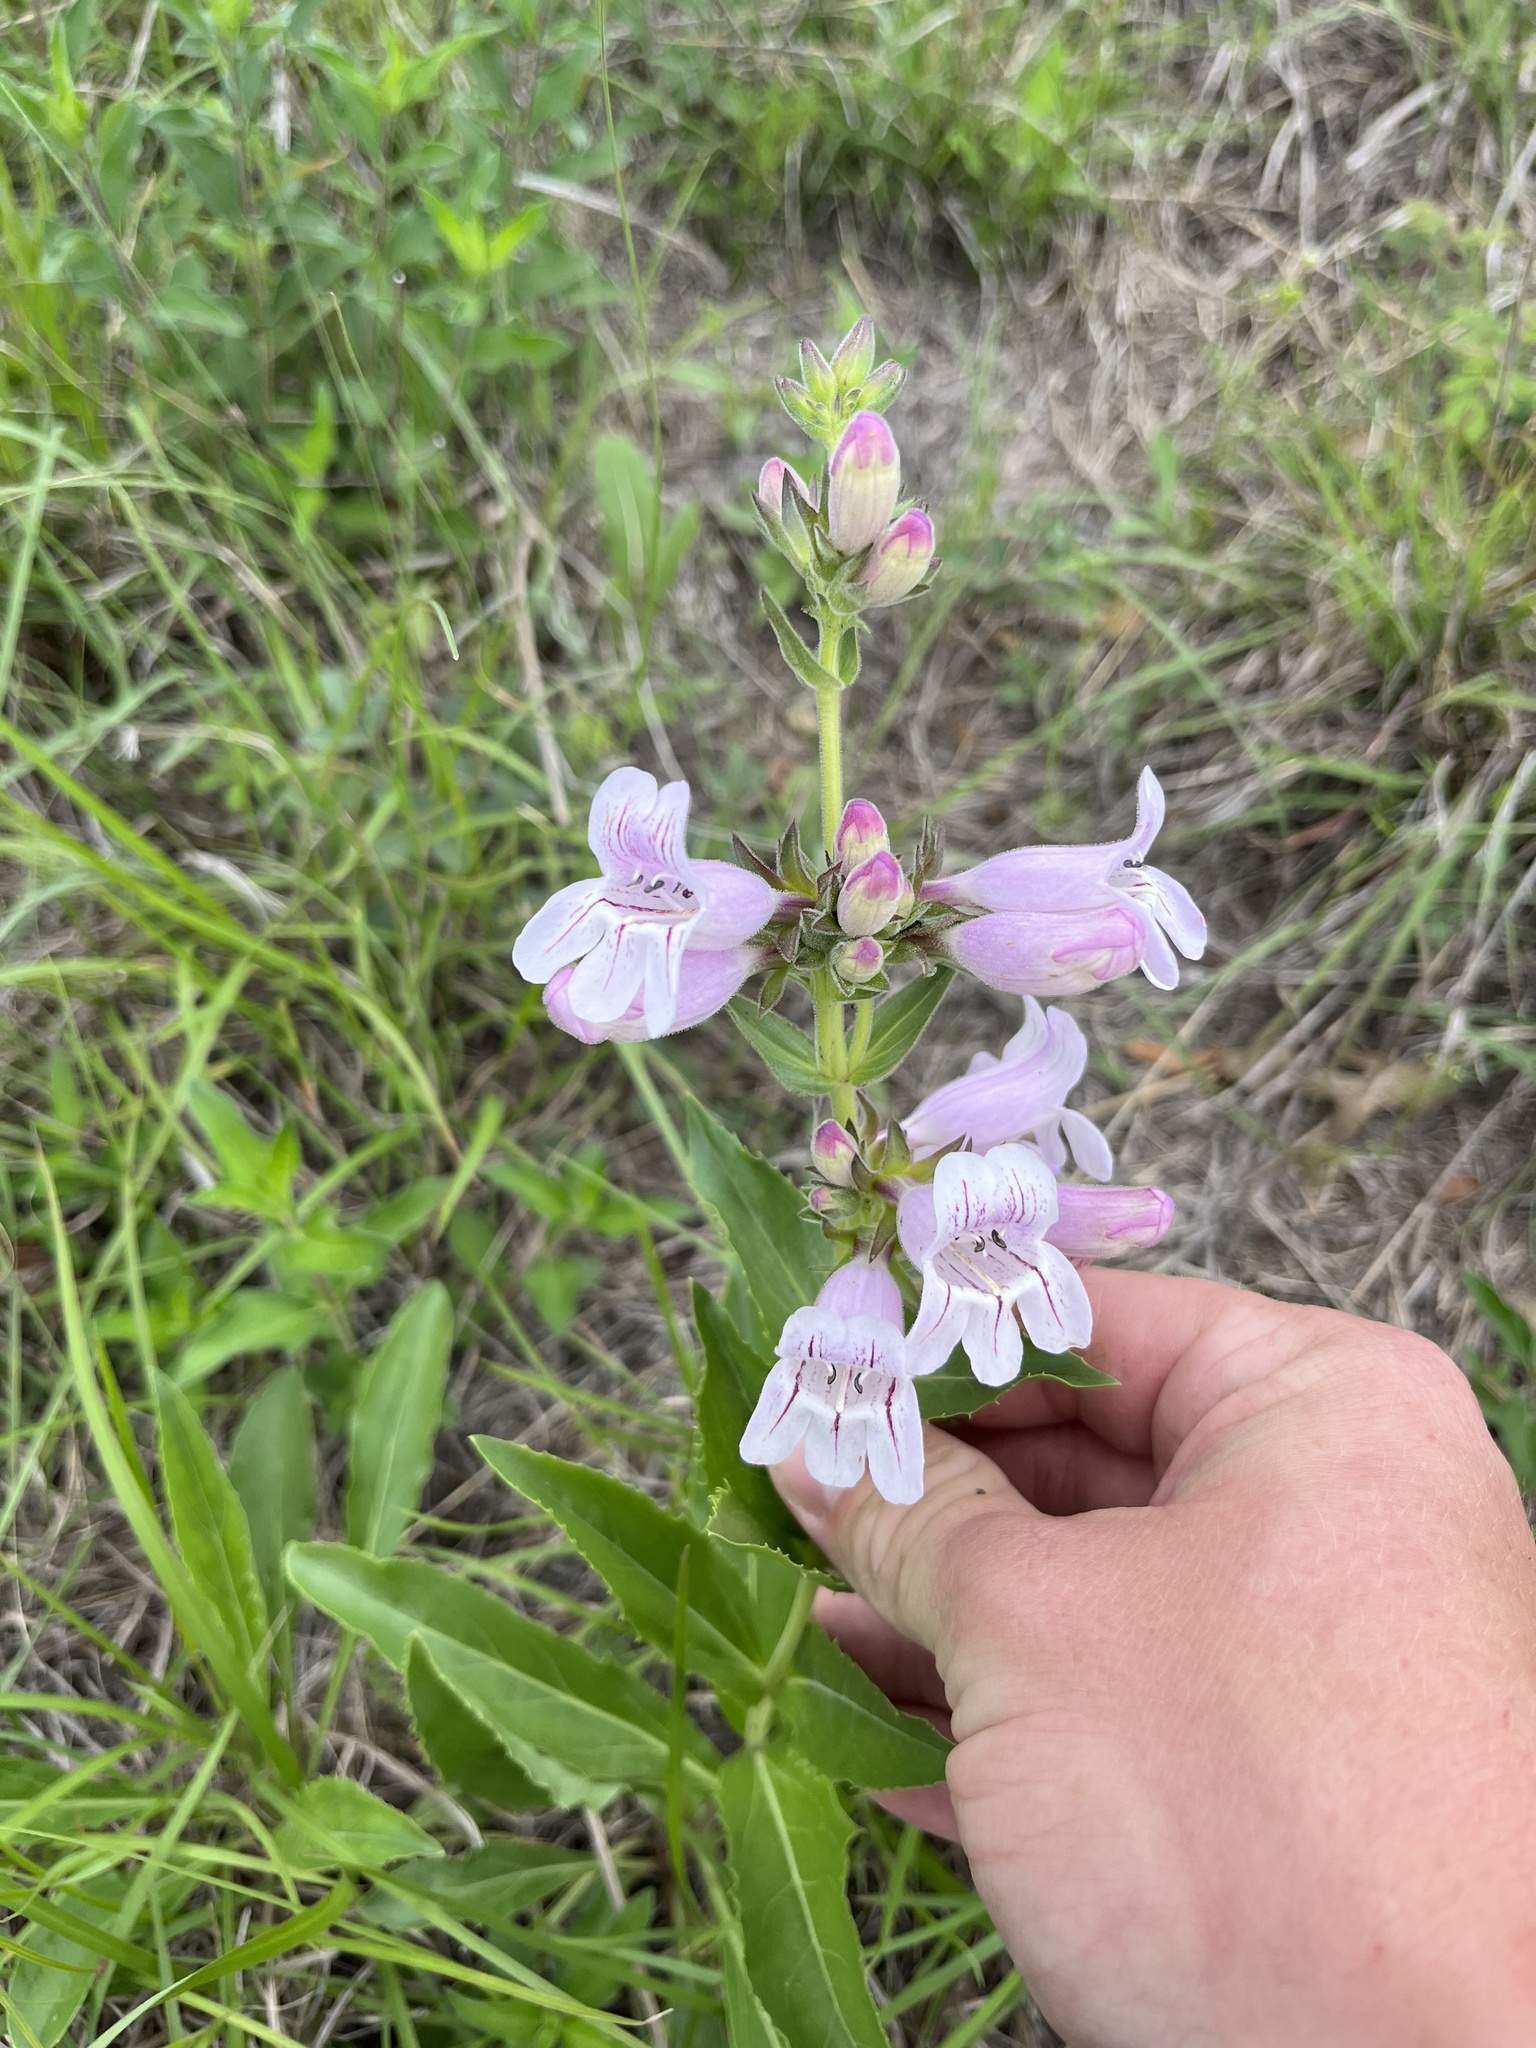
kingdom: Plantae
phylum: Tracheophyta
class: Magnoliopsida
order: Lamiales
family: Plantaginaceae
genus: Penstemon
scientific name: Penstemon cobaea
